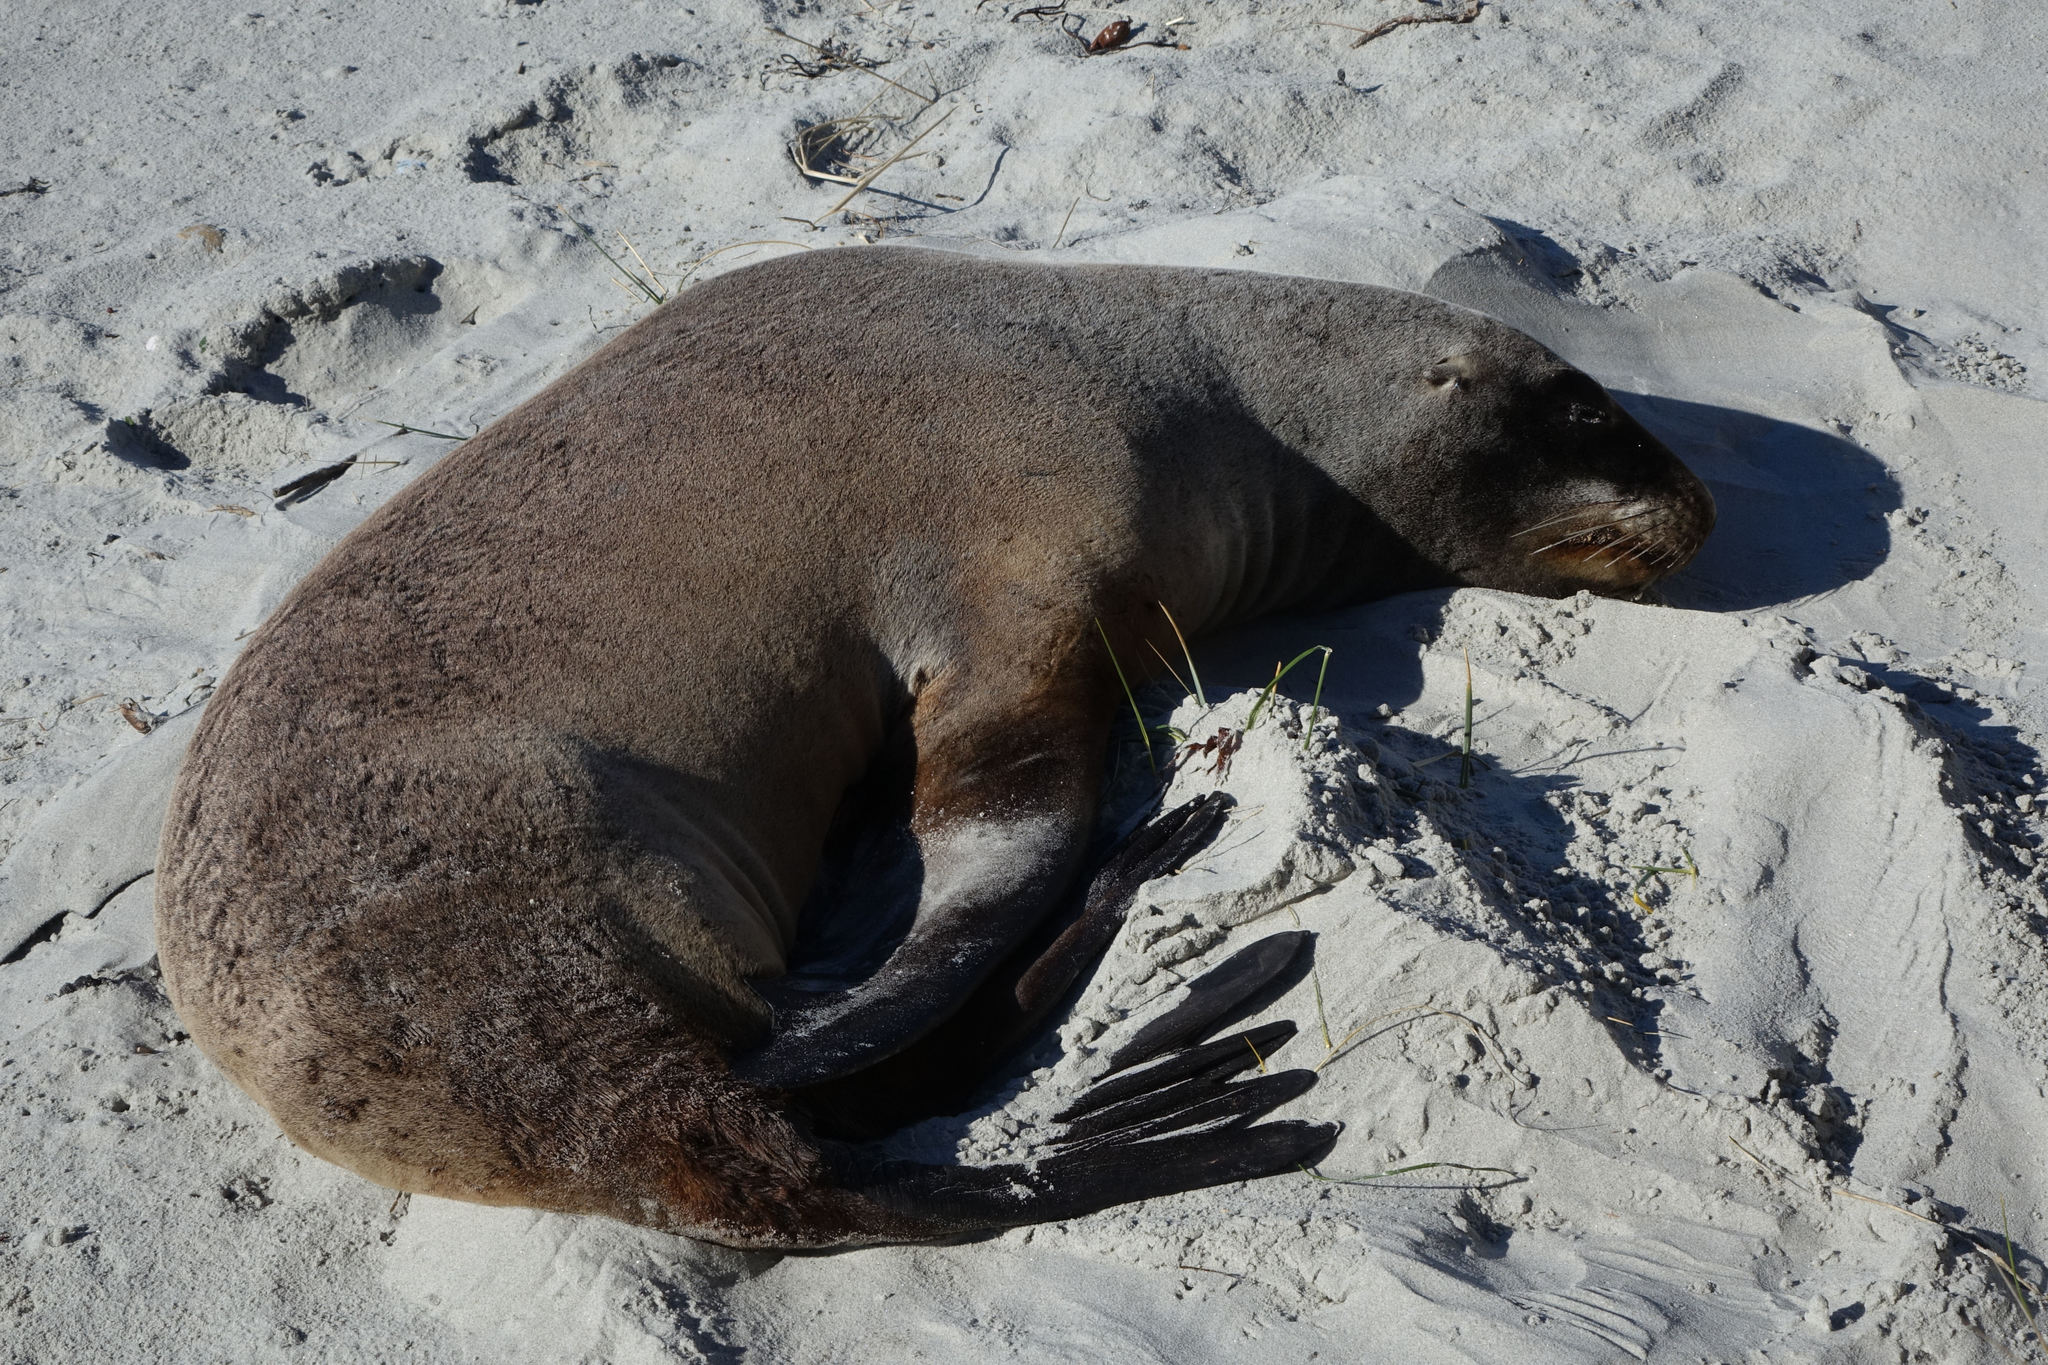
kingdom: Animalia
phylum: Chordata
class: Mammalia
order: Carnivora
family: Otariidae
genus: Phocarctos
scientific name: Phocarctos hookeri
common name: New zealand sea lion
